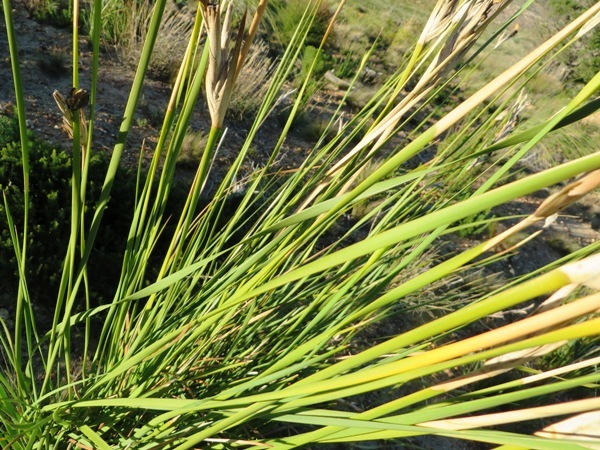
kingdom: Plantae
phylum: Tracheophyta
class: Liliopsida
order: Asparagales
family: Iridaceae
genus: Bobartia
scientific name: Bobartia filiformis
